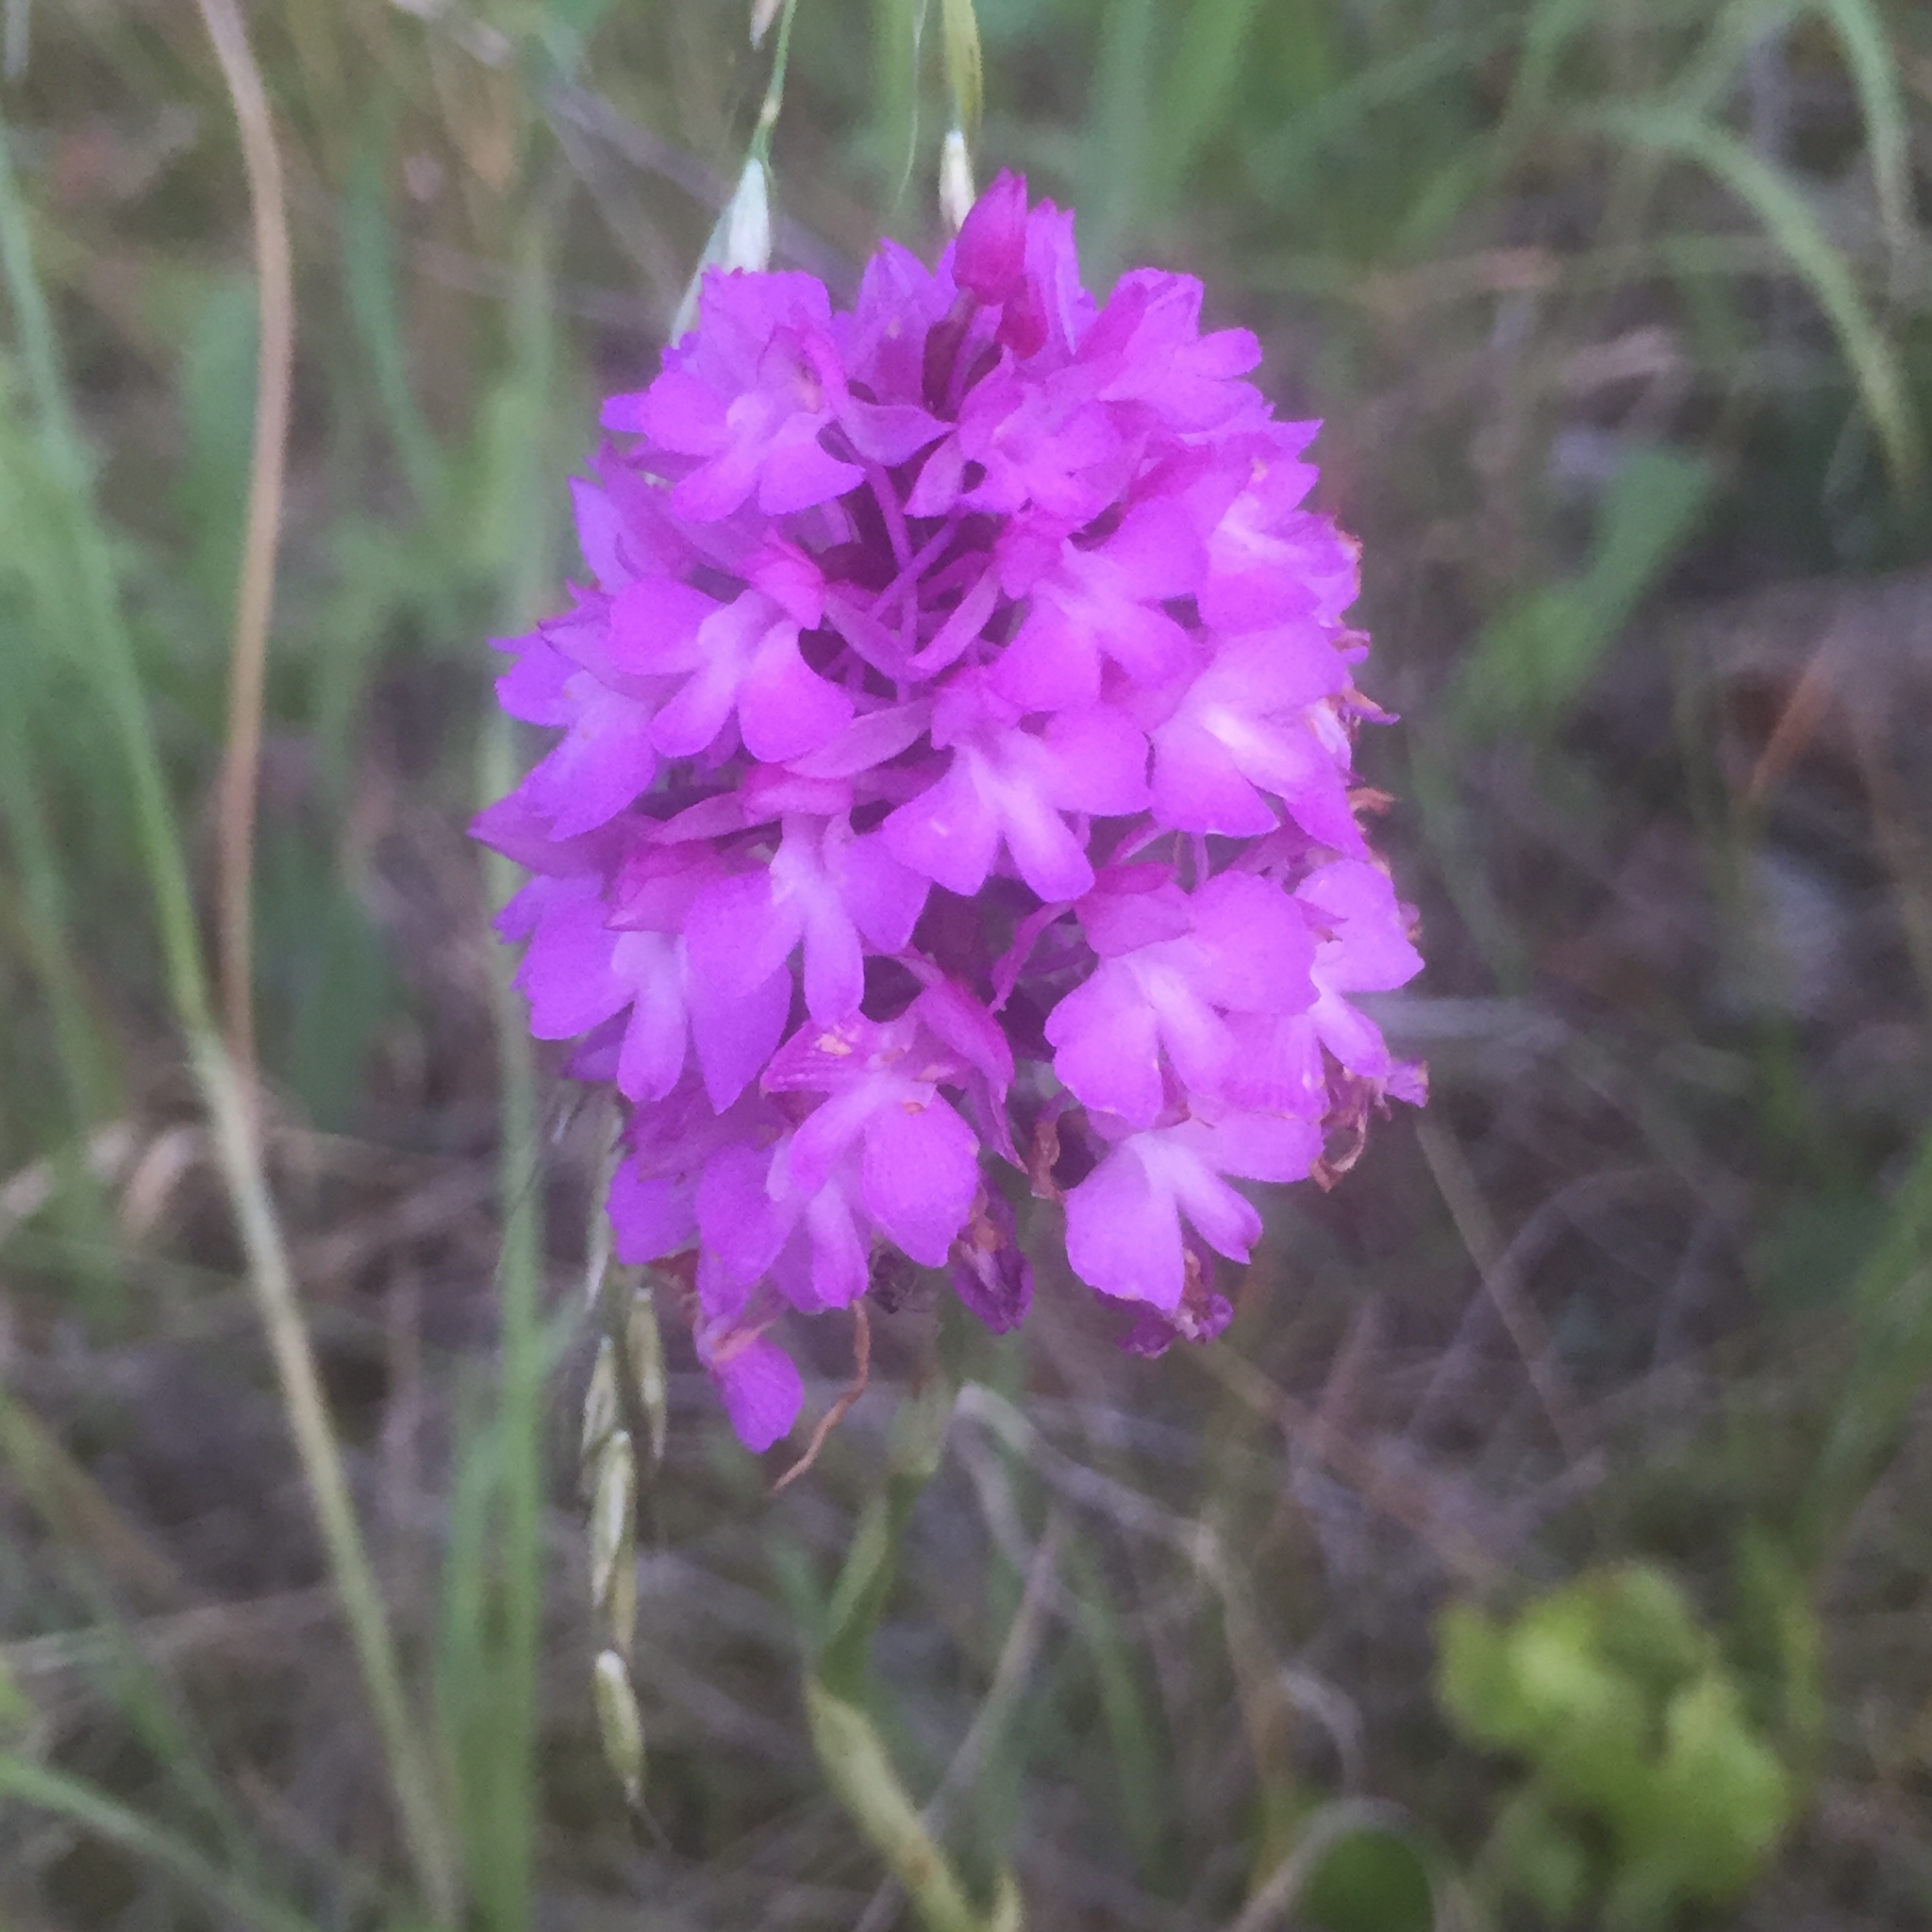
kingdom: Plantae
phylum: Tracheophyta
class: Liliopsida
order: Asparagales
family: Orchidaceae
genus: Anacamptis
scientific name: Anacamptis pyramidalis
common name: Pyramidal orchid
